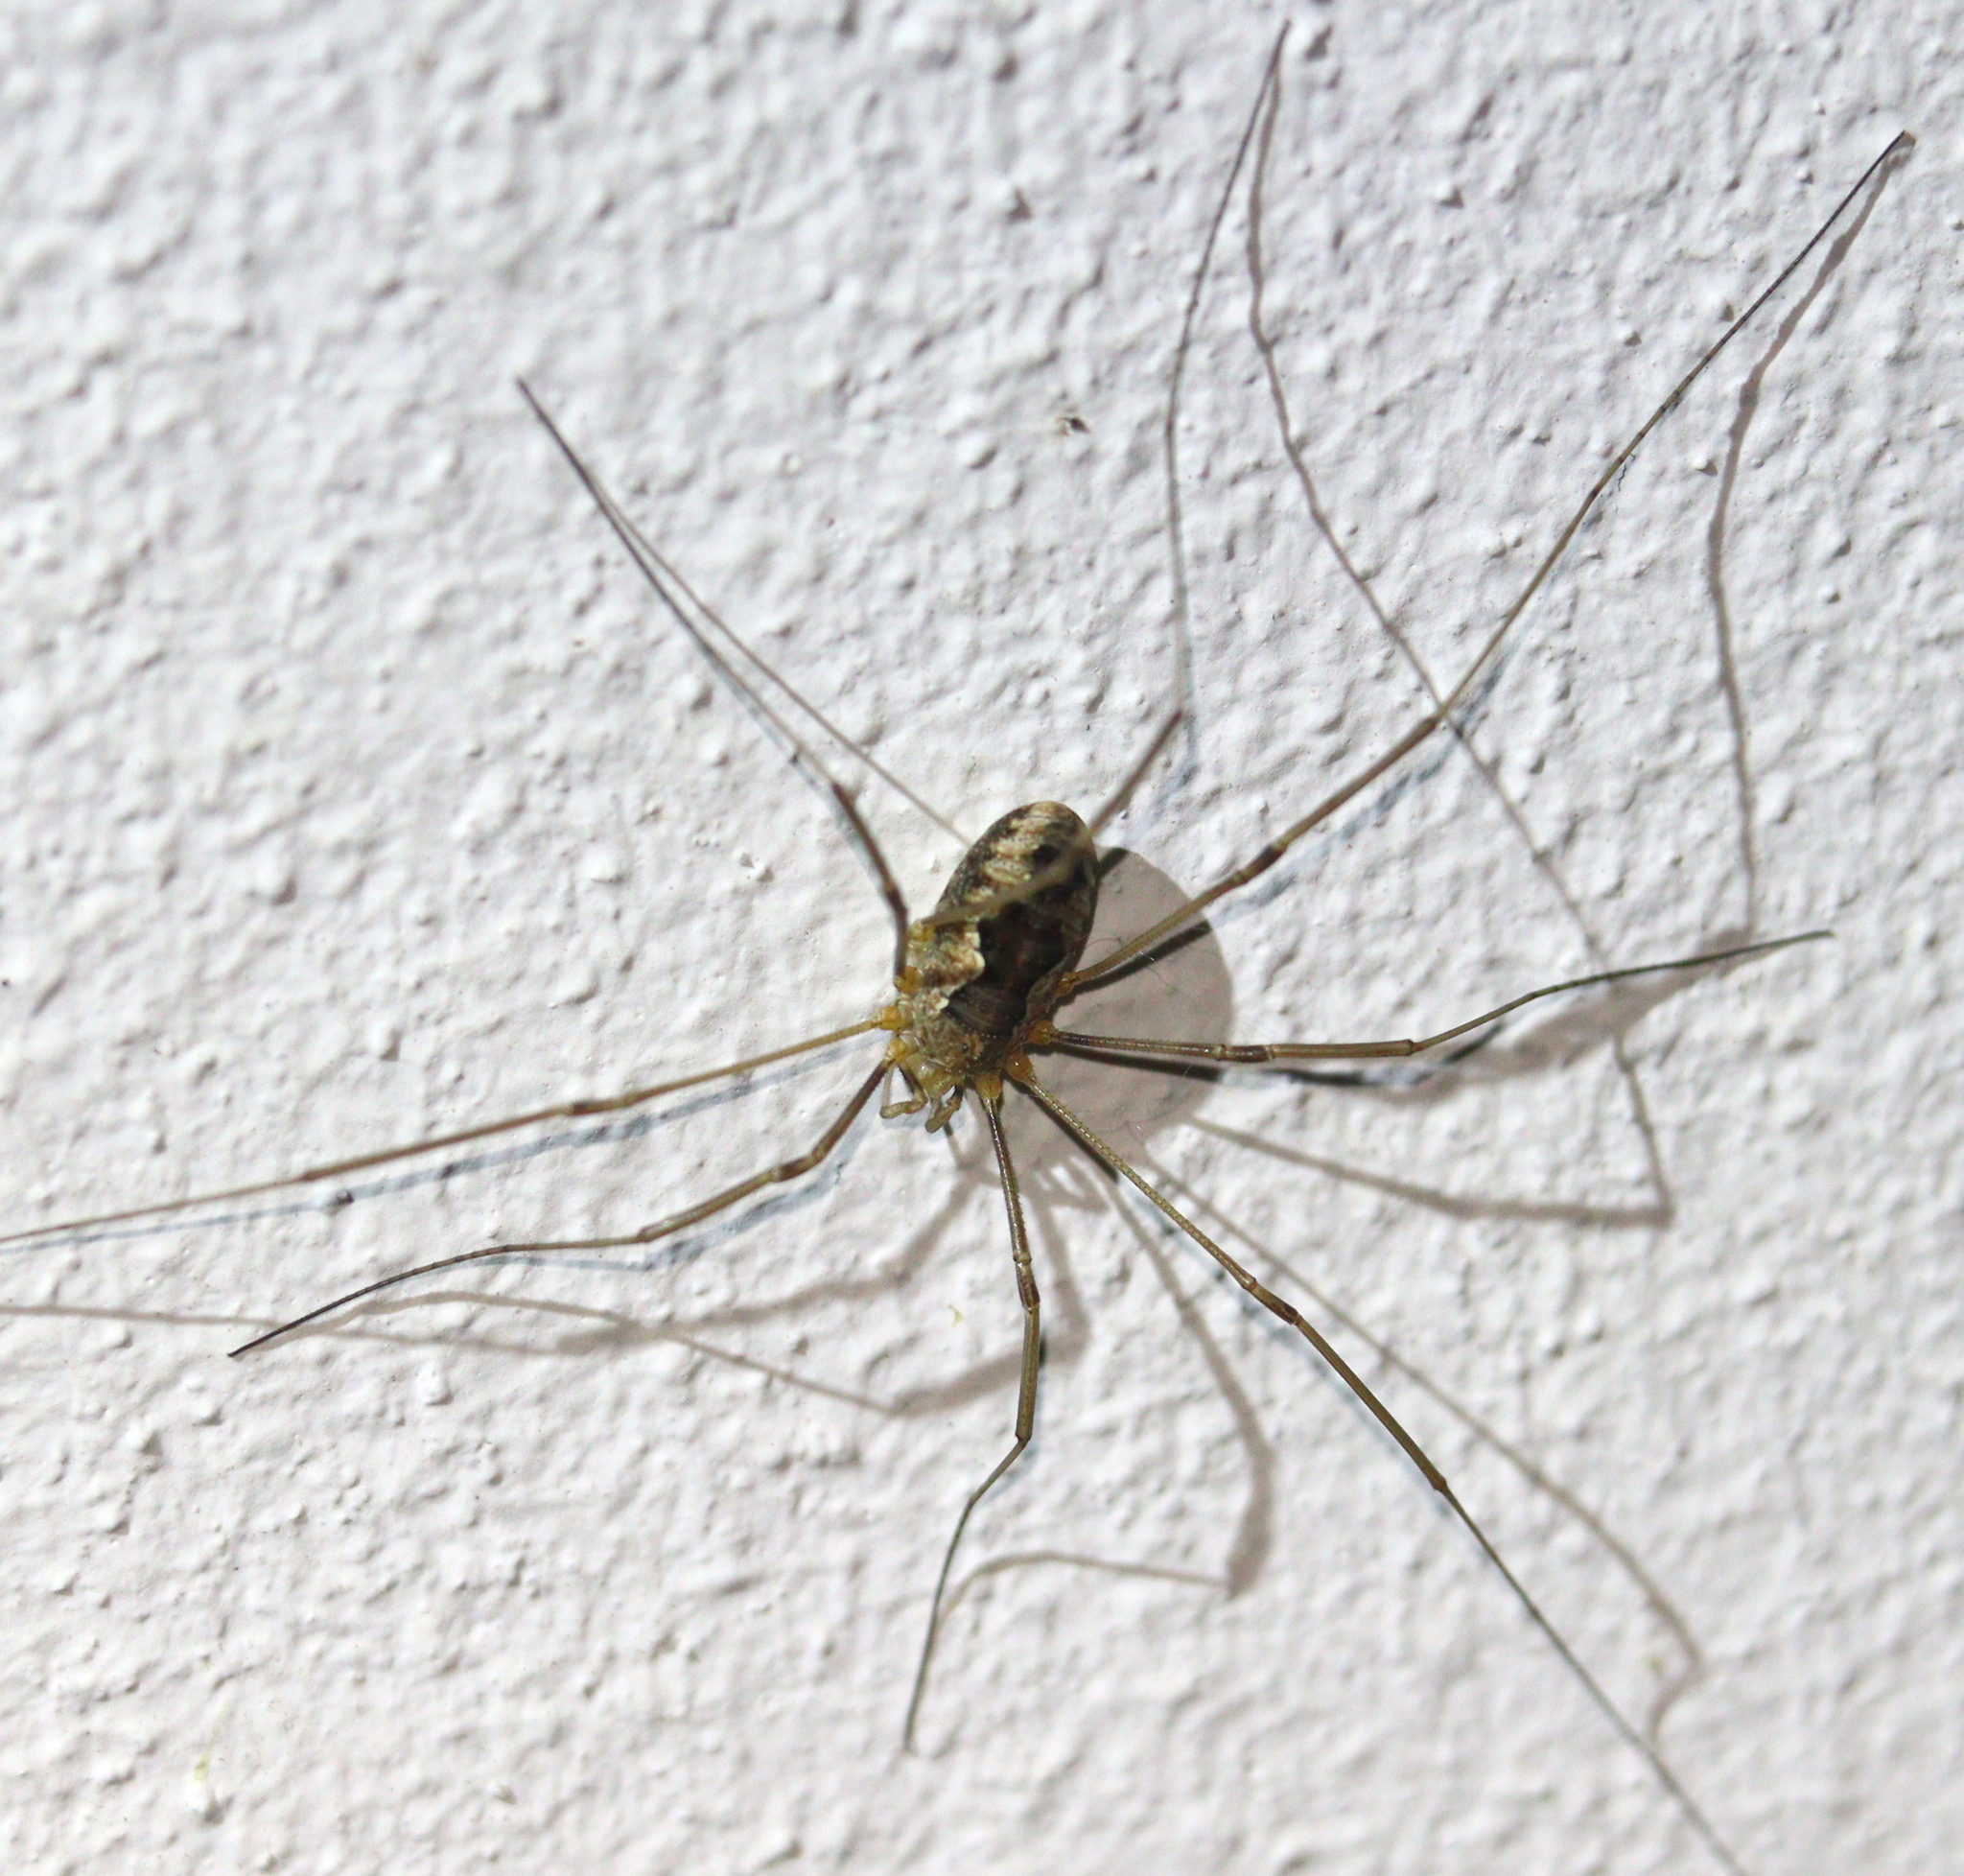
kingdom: Animalia
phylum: Arthropoda
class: Arachnida
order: Opiliones
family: Phalangiidae
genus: Phalangium
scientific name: Phalangium opilio
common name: Daddy longleg
